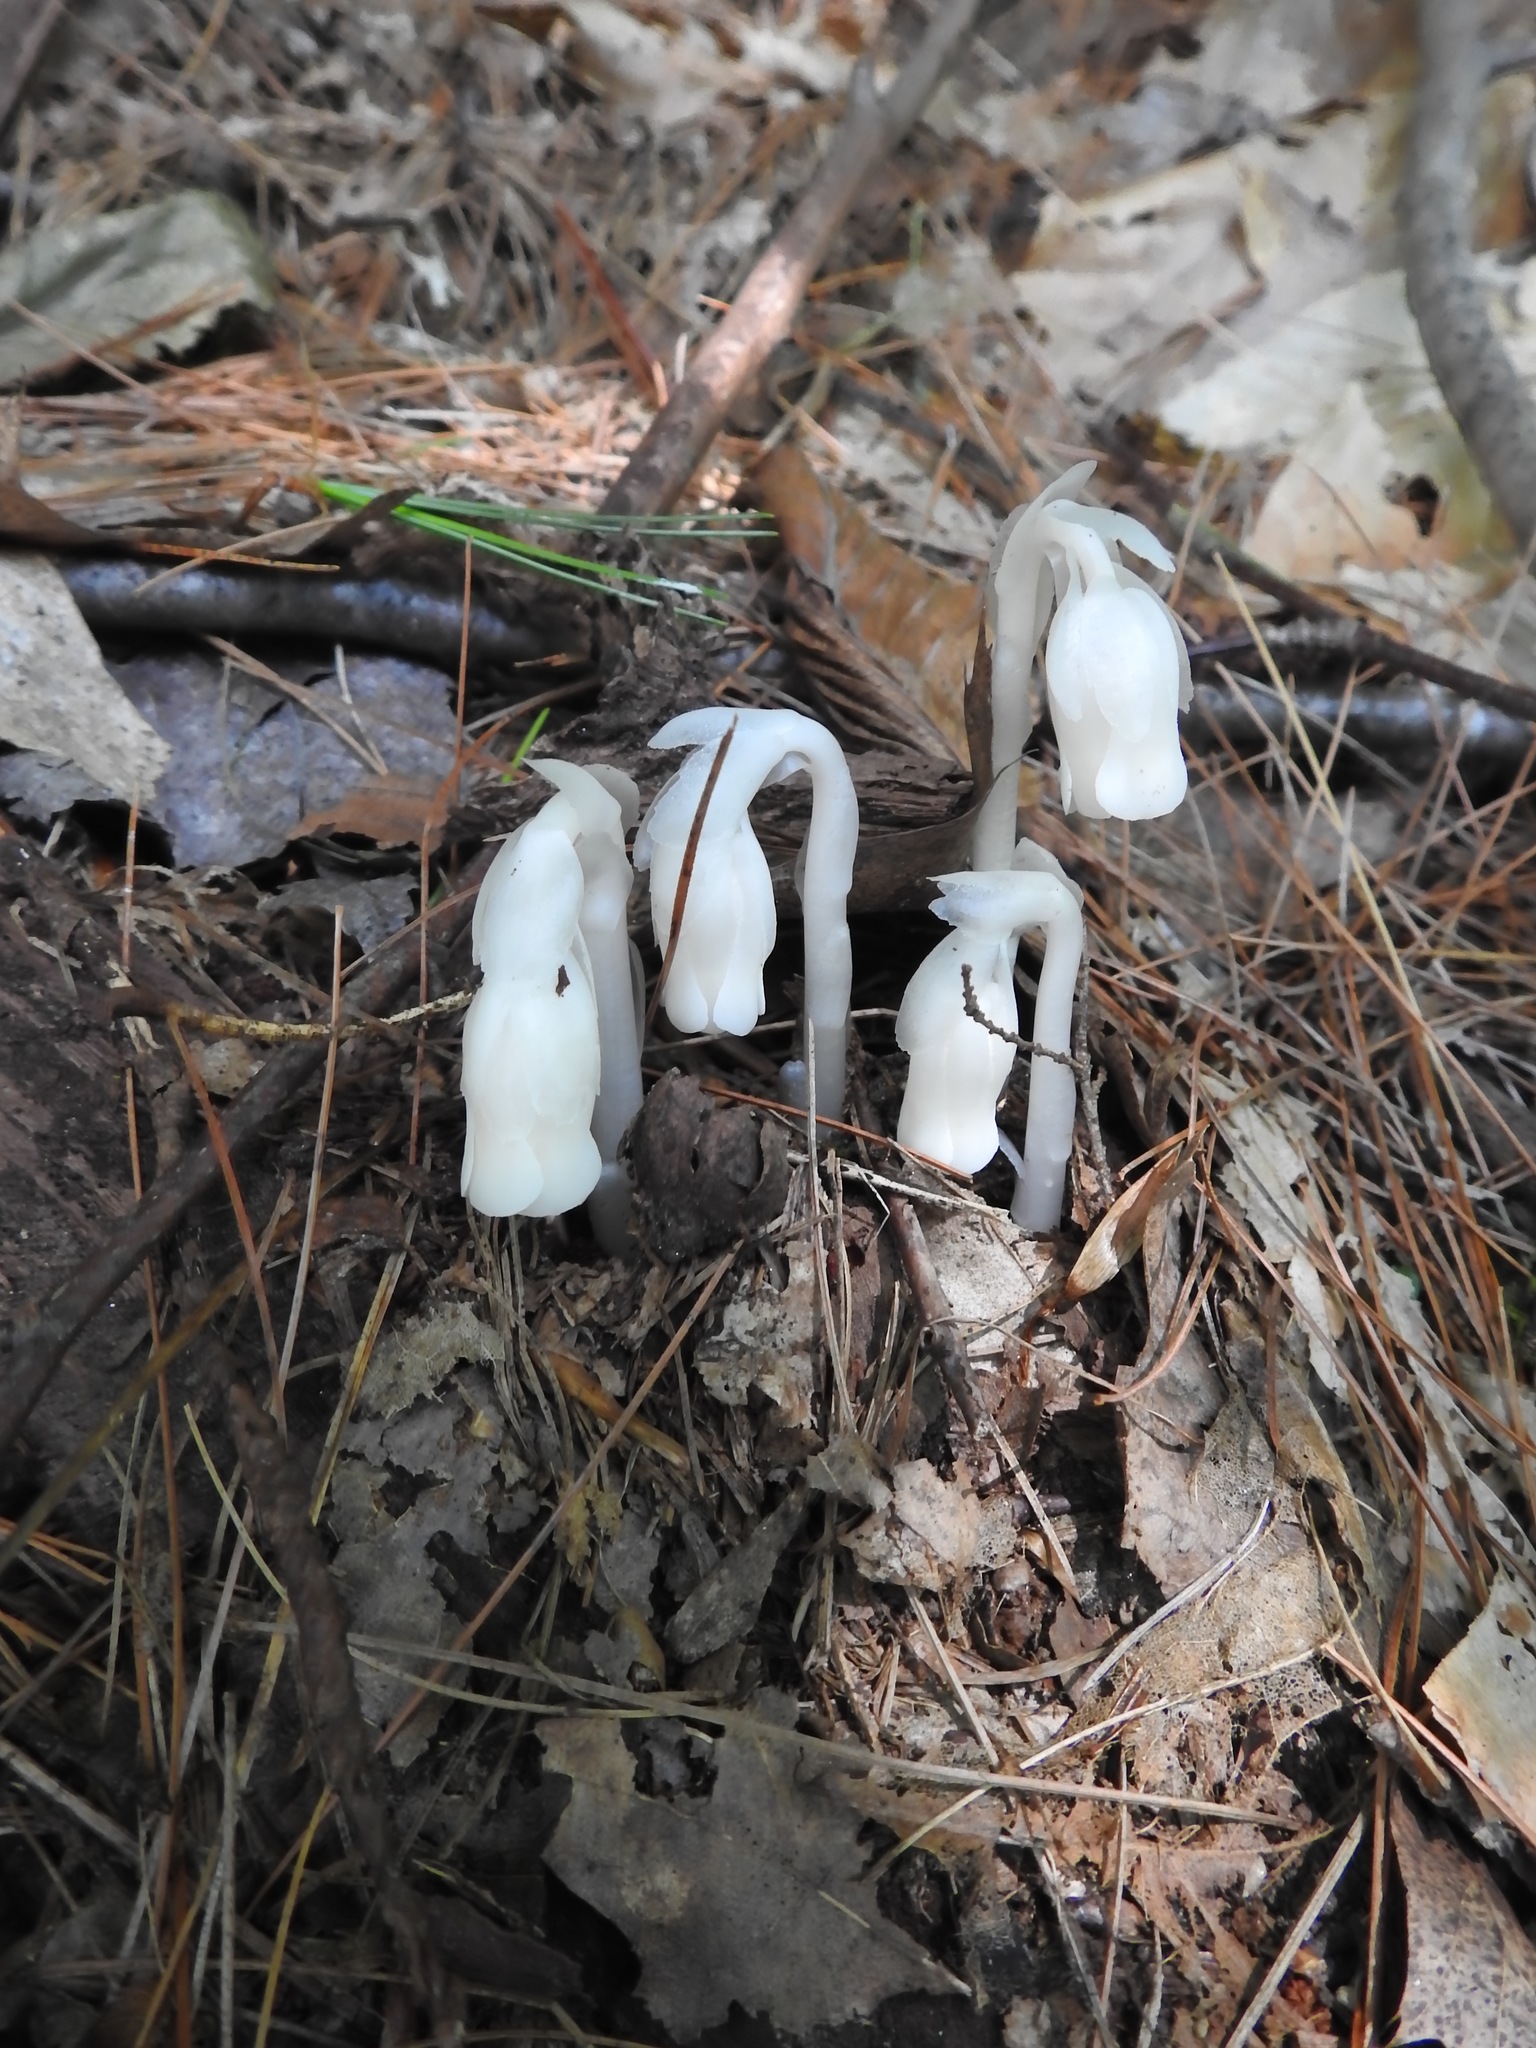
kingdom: Plantae
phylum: Tracheophyta
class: Magnoliopsida
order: Ericales
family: Ericaceae
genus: Monotropa
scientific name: Monotropa uniflora
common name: Convulsion root
